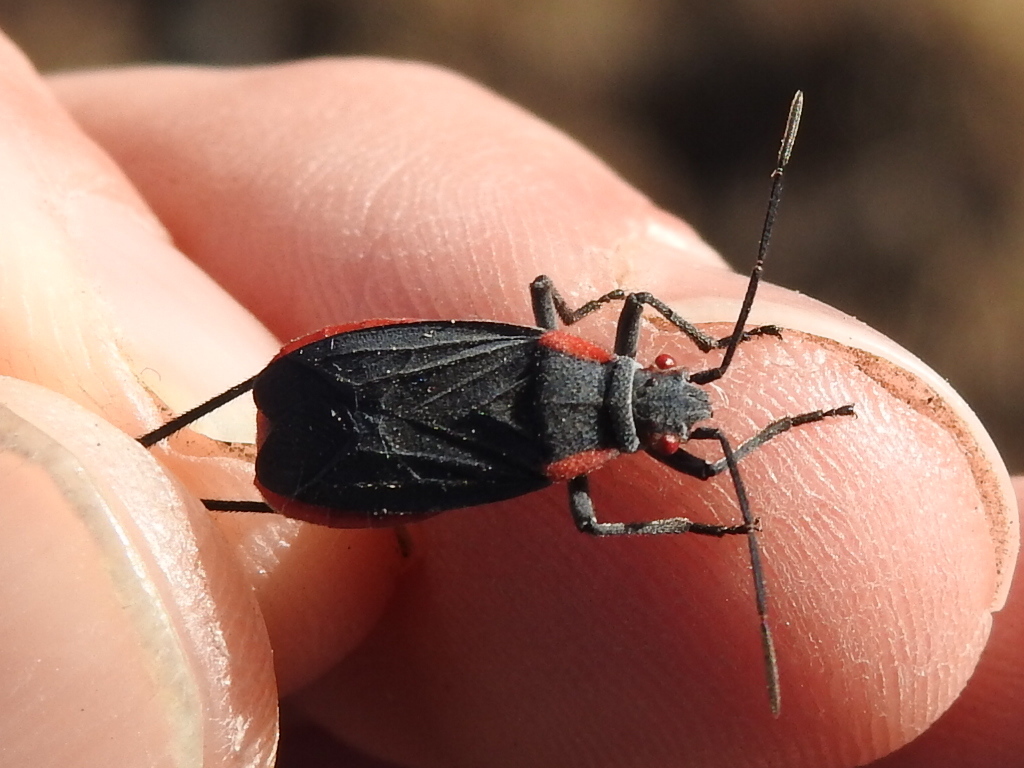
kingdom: Animalia
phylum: Arthropoda
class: Insecta
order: Hemiptera
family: Rhopalidae
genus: Jadera
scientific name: Jadera haematoloma
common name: Red-shouldered bug
